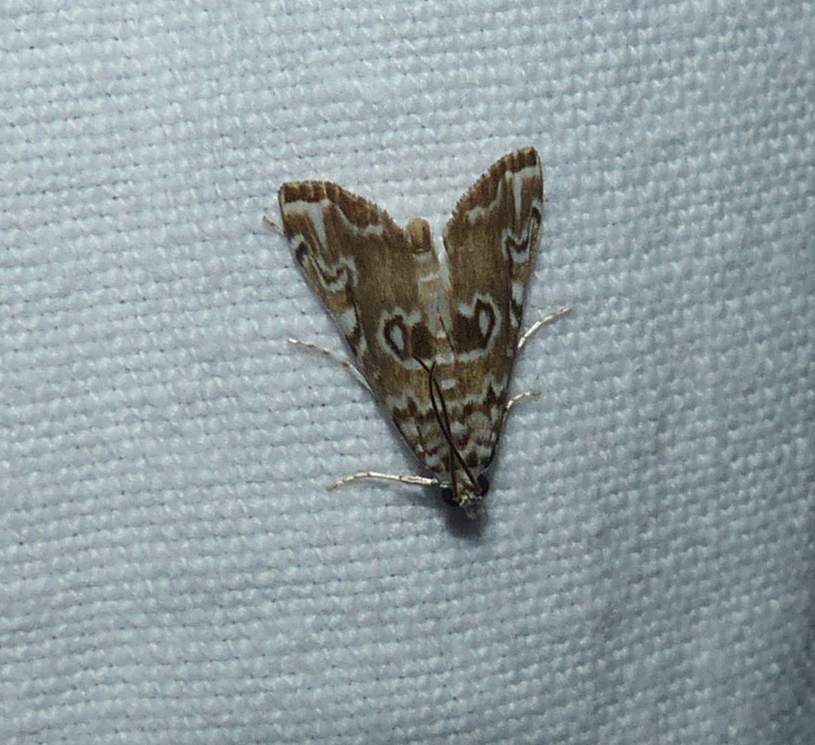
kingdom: Animalia
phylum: Arthropoda
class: Insecta
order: Lepidoptera
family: Crambidae
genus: Elophila
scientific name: Elophila gyralis
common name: Waterlily borer moth
